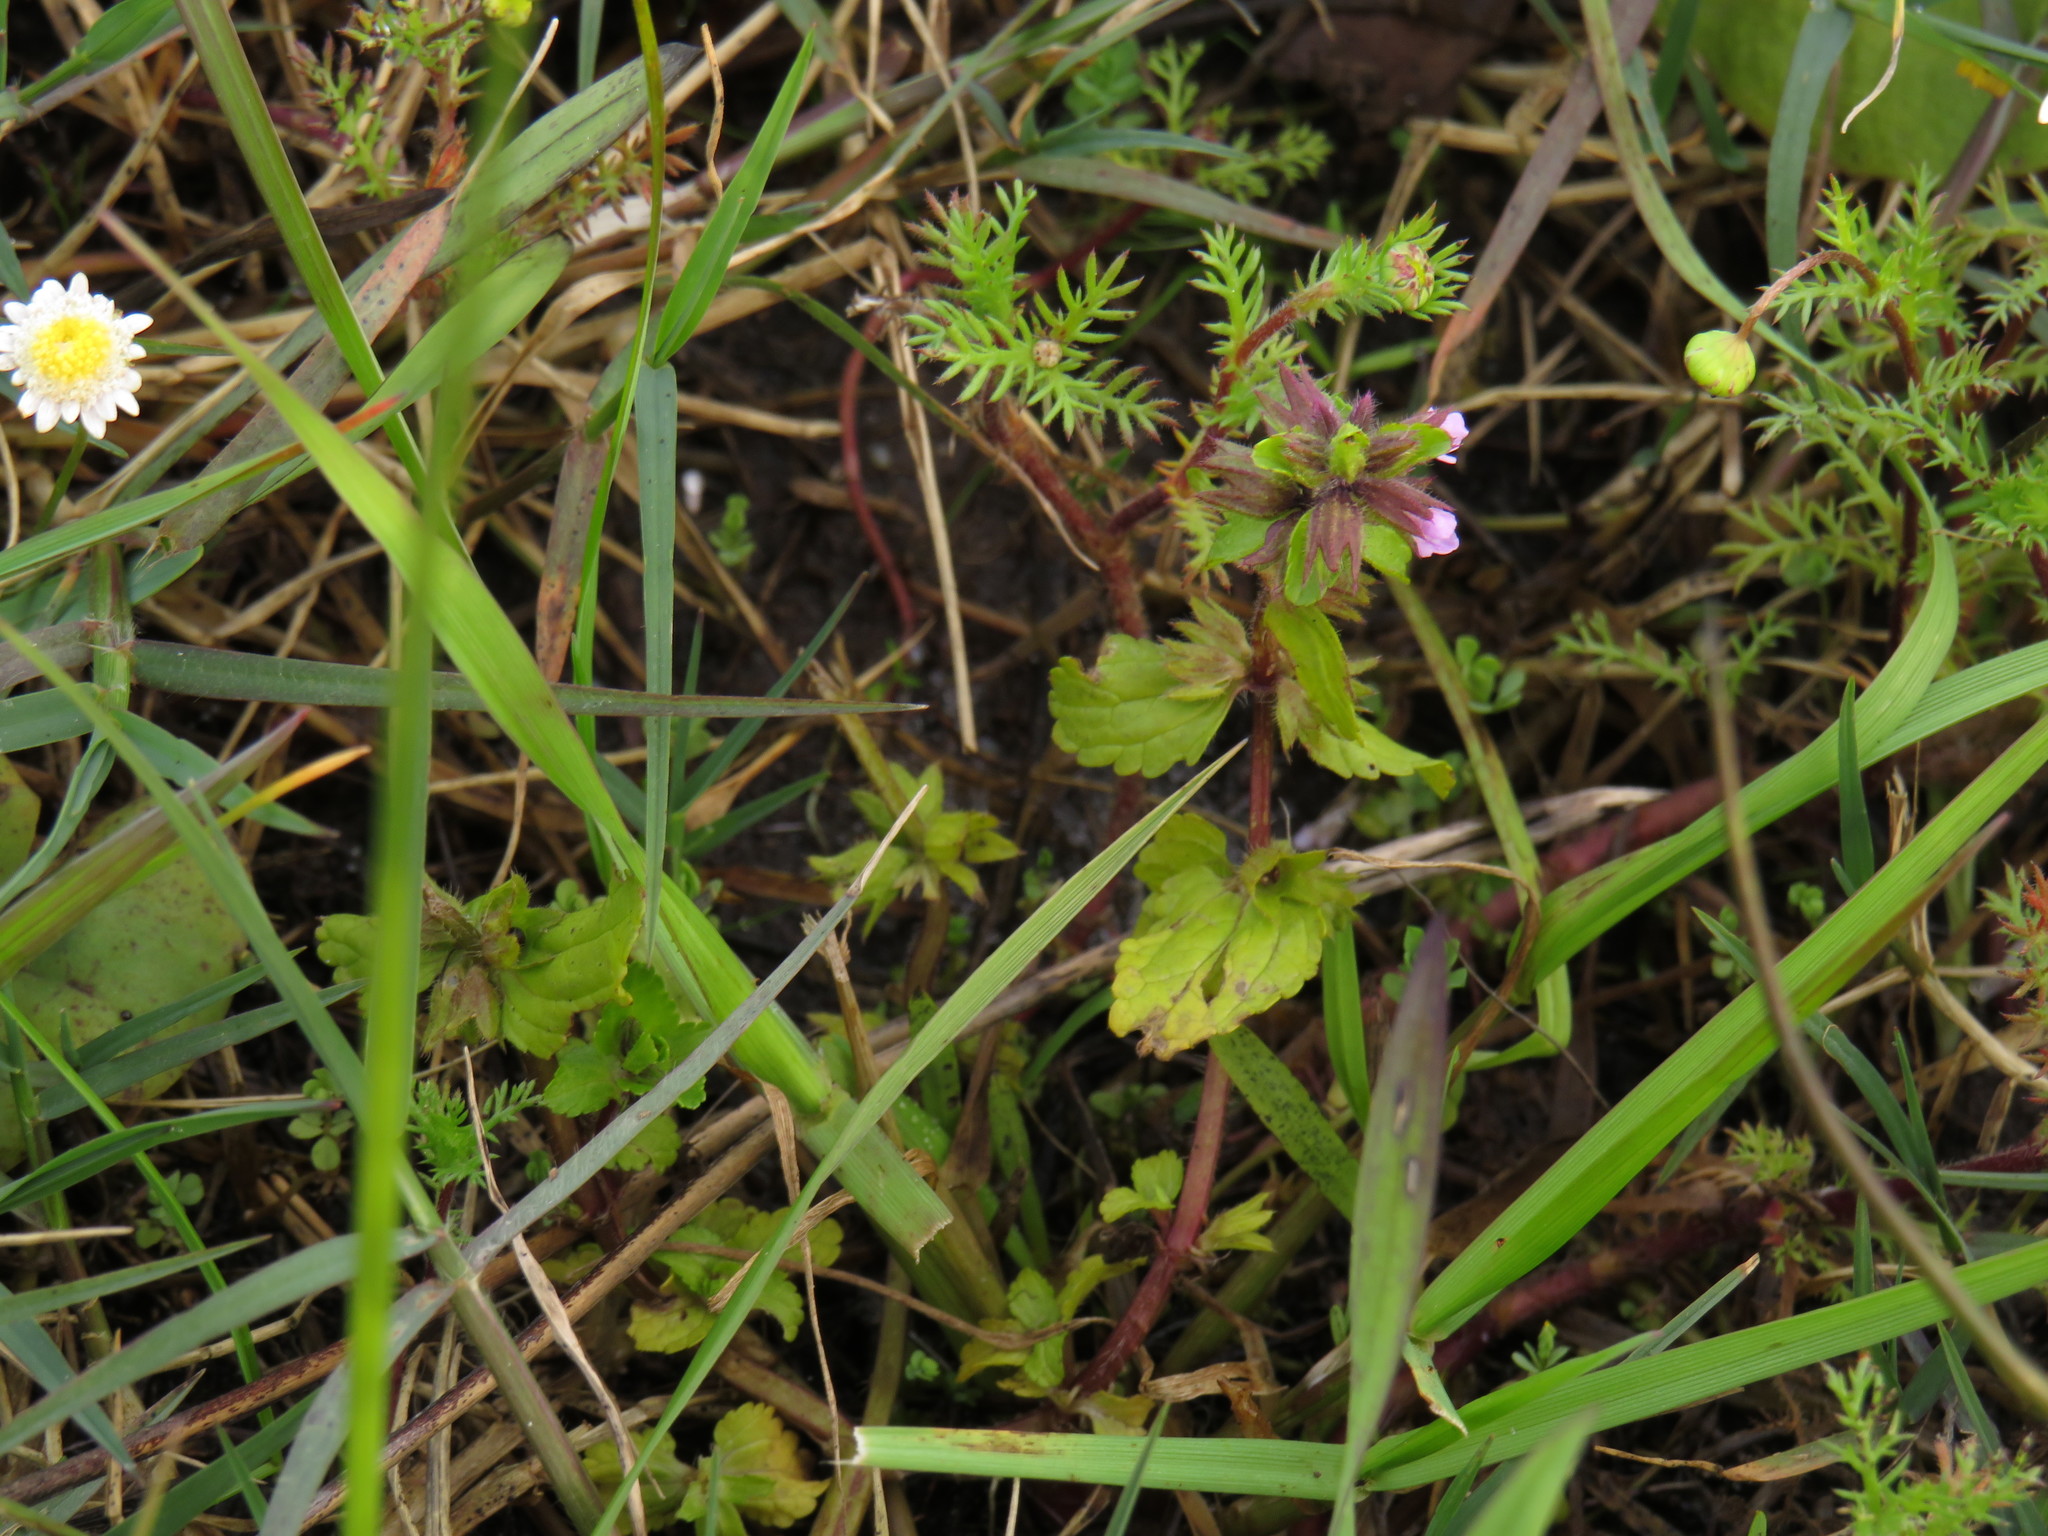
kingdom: Plantae
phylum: Tracheophyta
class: Magnoliopsida
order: Lamiales
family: Lamiaceae
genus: Stachys
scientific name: Stachys arvensis
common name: Field woundwort
